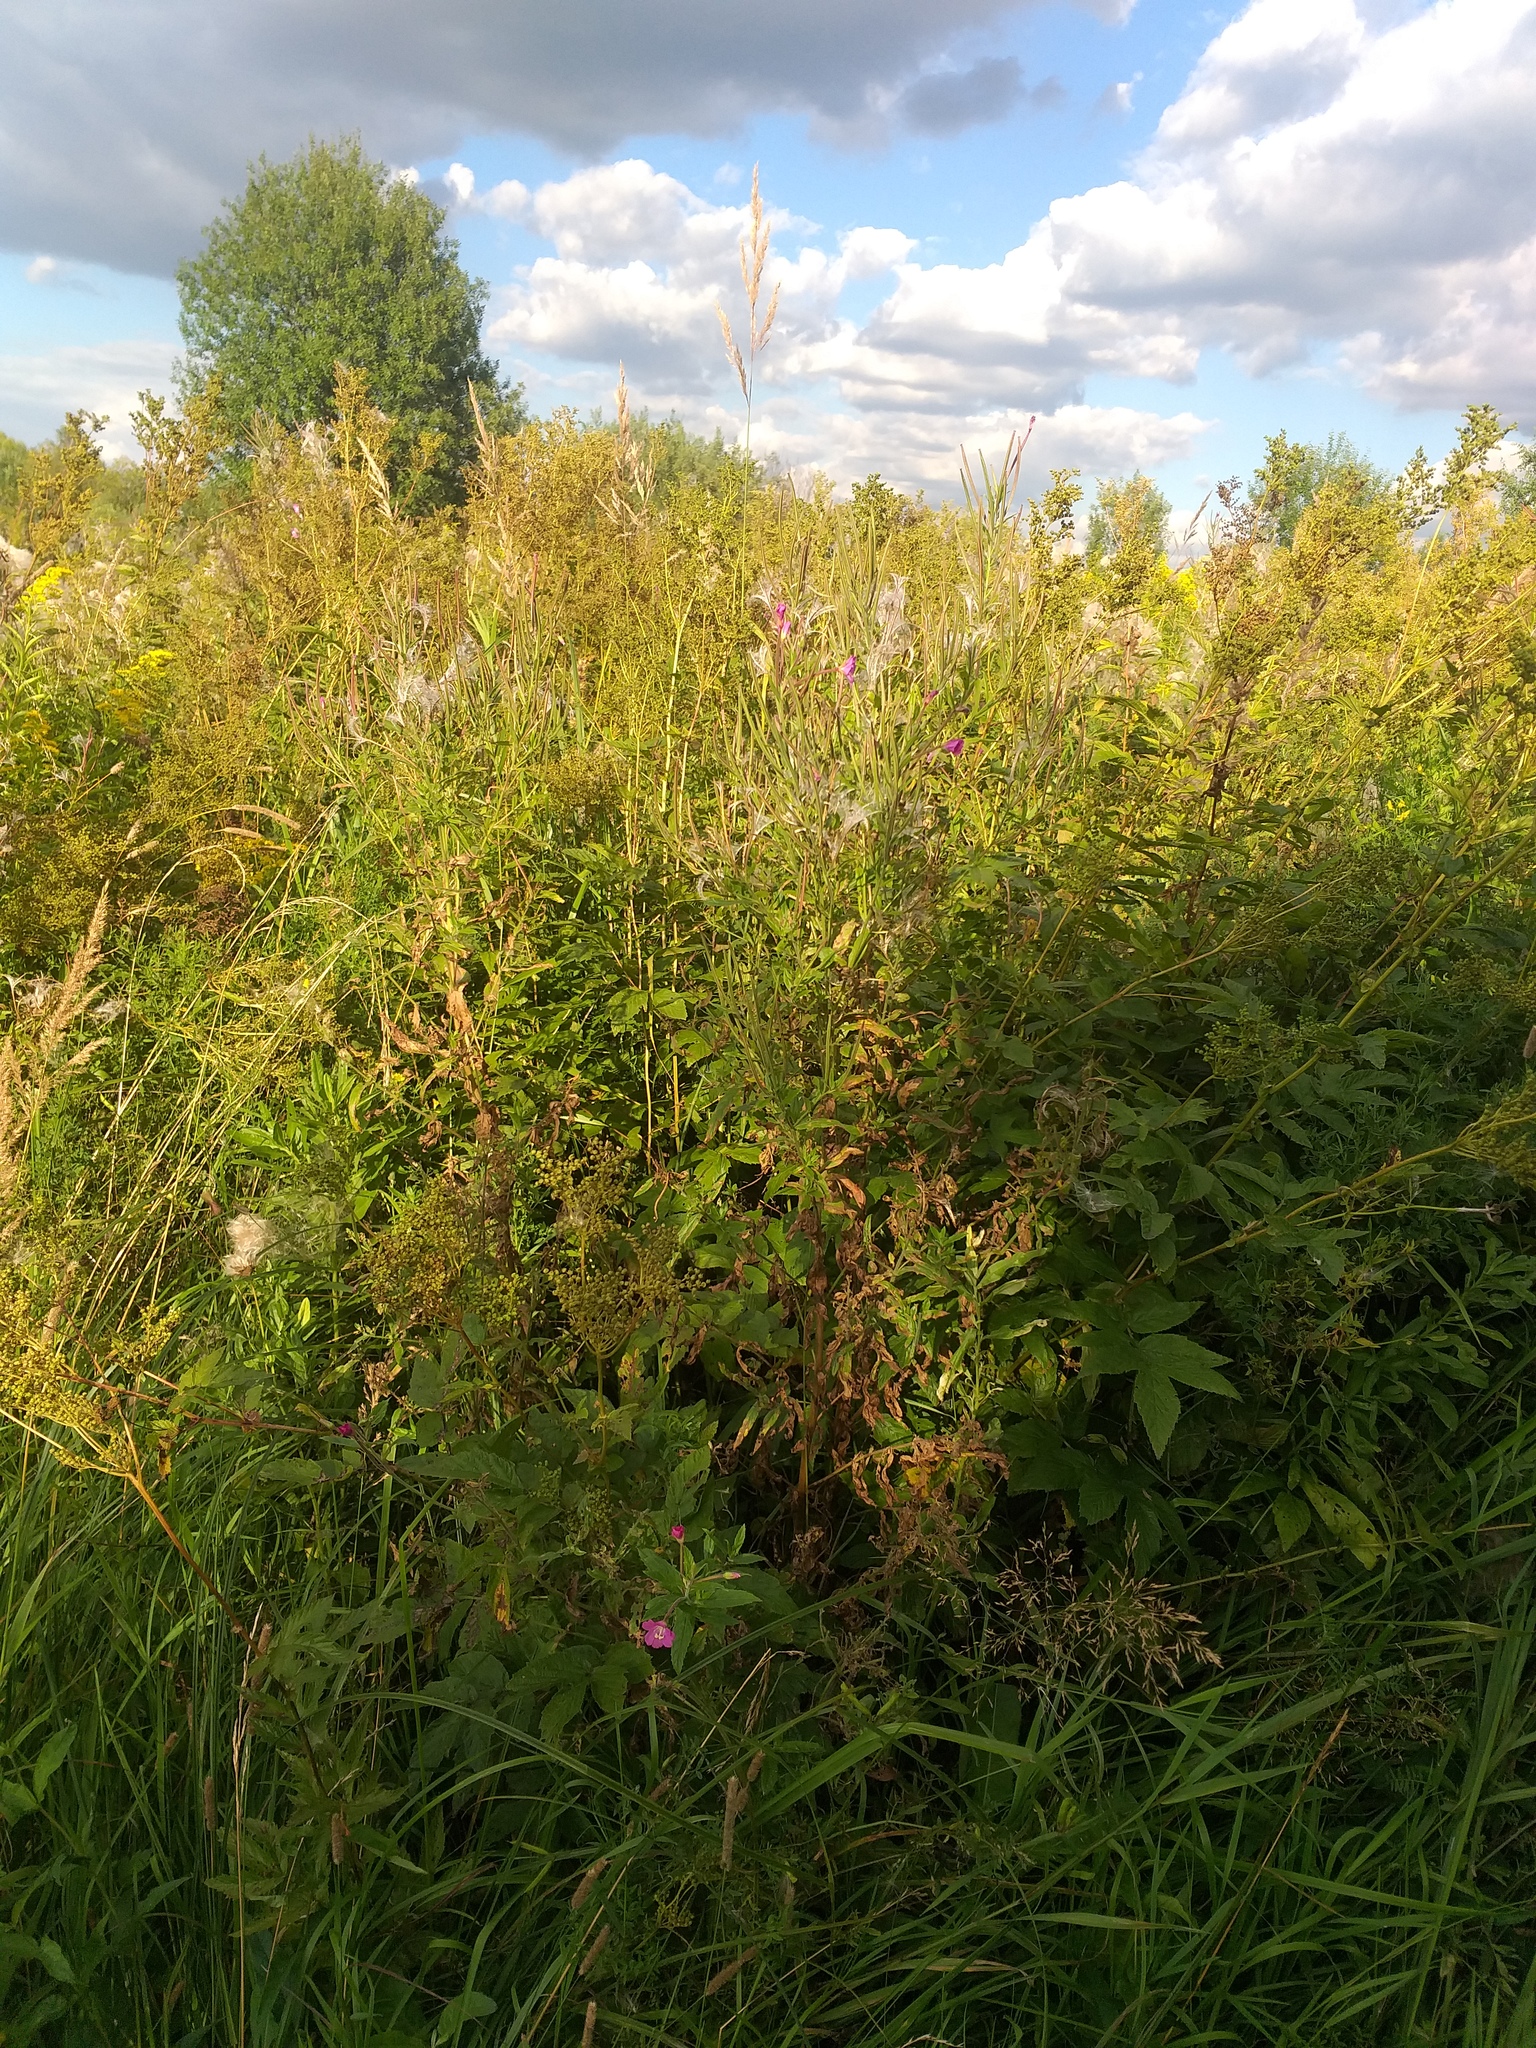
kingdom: Plantae
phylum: Tracheophyta
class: Magnoliopsida
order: Myrtales
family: Onagraceae
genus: Epilobium
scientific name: Epilobium hirsutum
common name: Great willowherb
